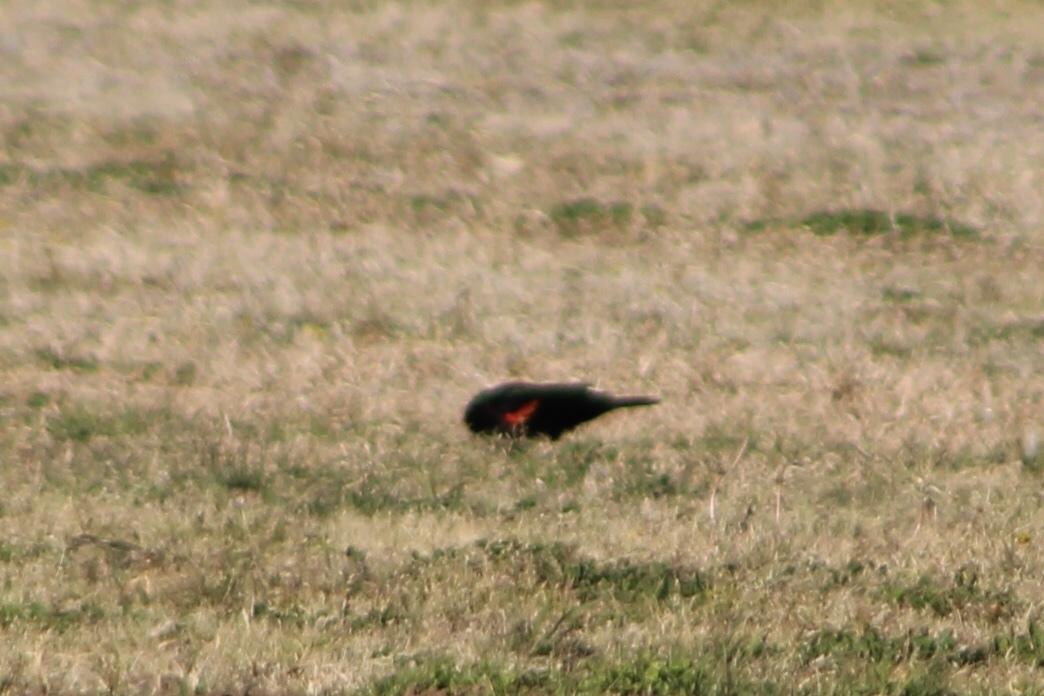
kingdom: Animalia
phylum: Chordata
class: Aves
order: Passeriformes
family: Icteridae
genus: Agelaius
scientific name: Agelaius phoeniceus
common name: Red-winged blackbird
